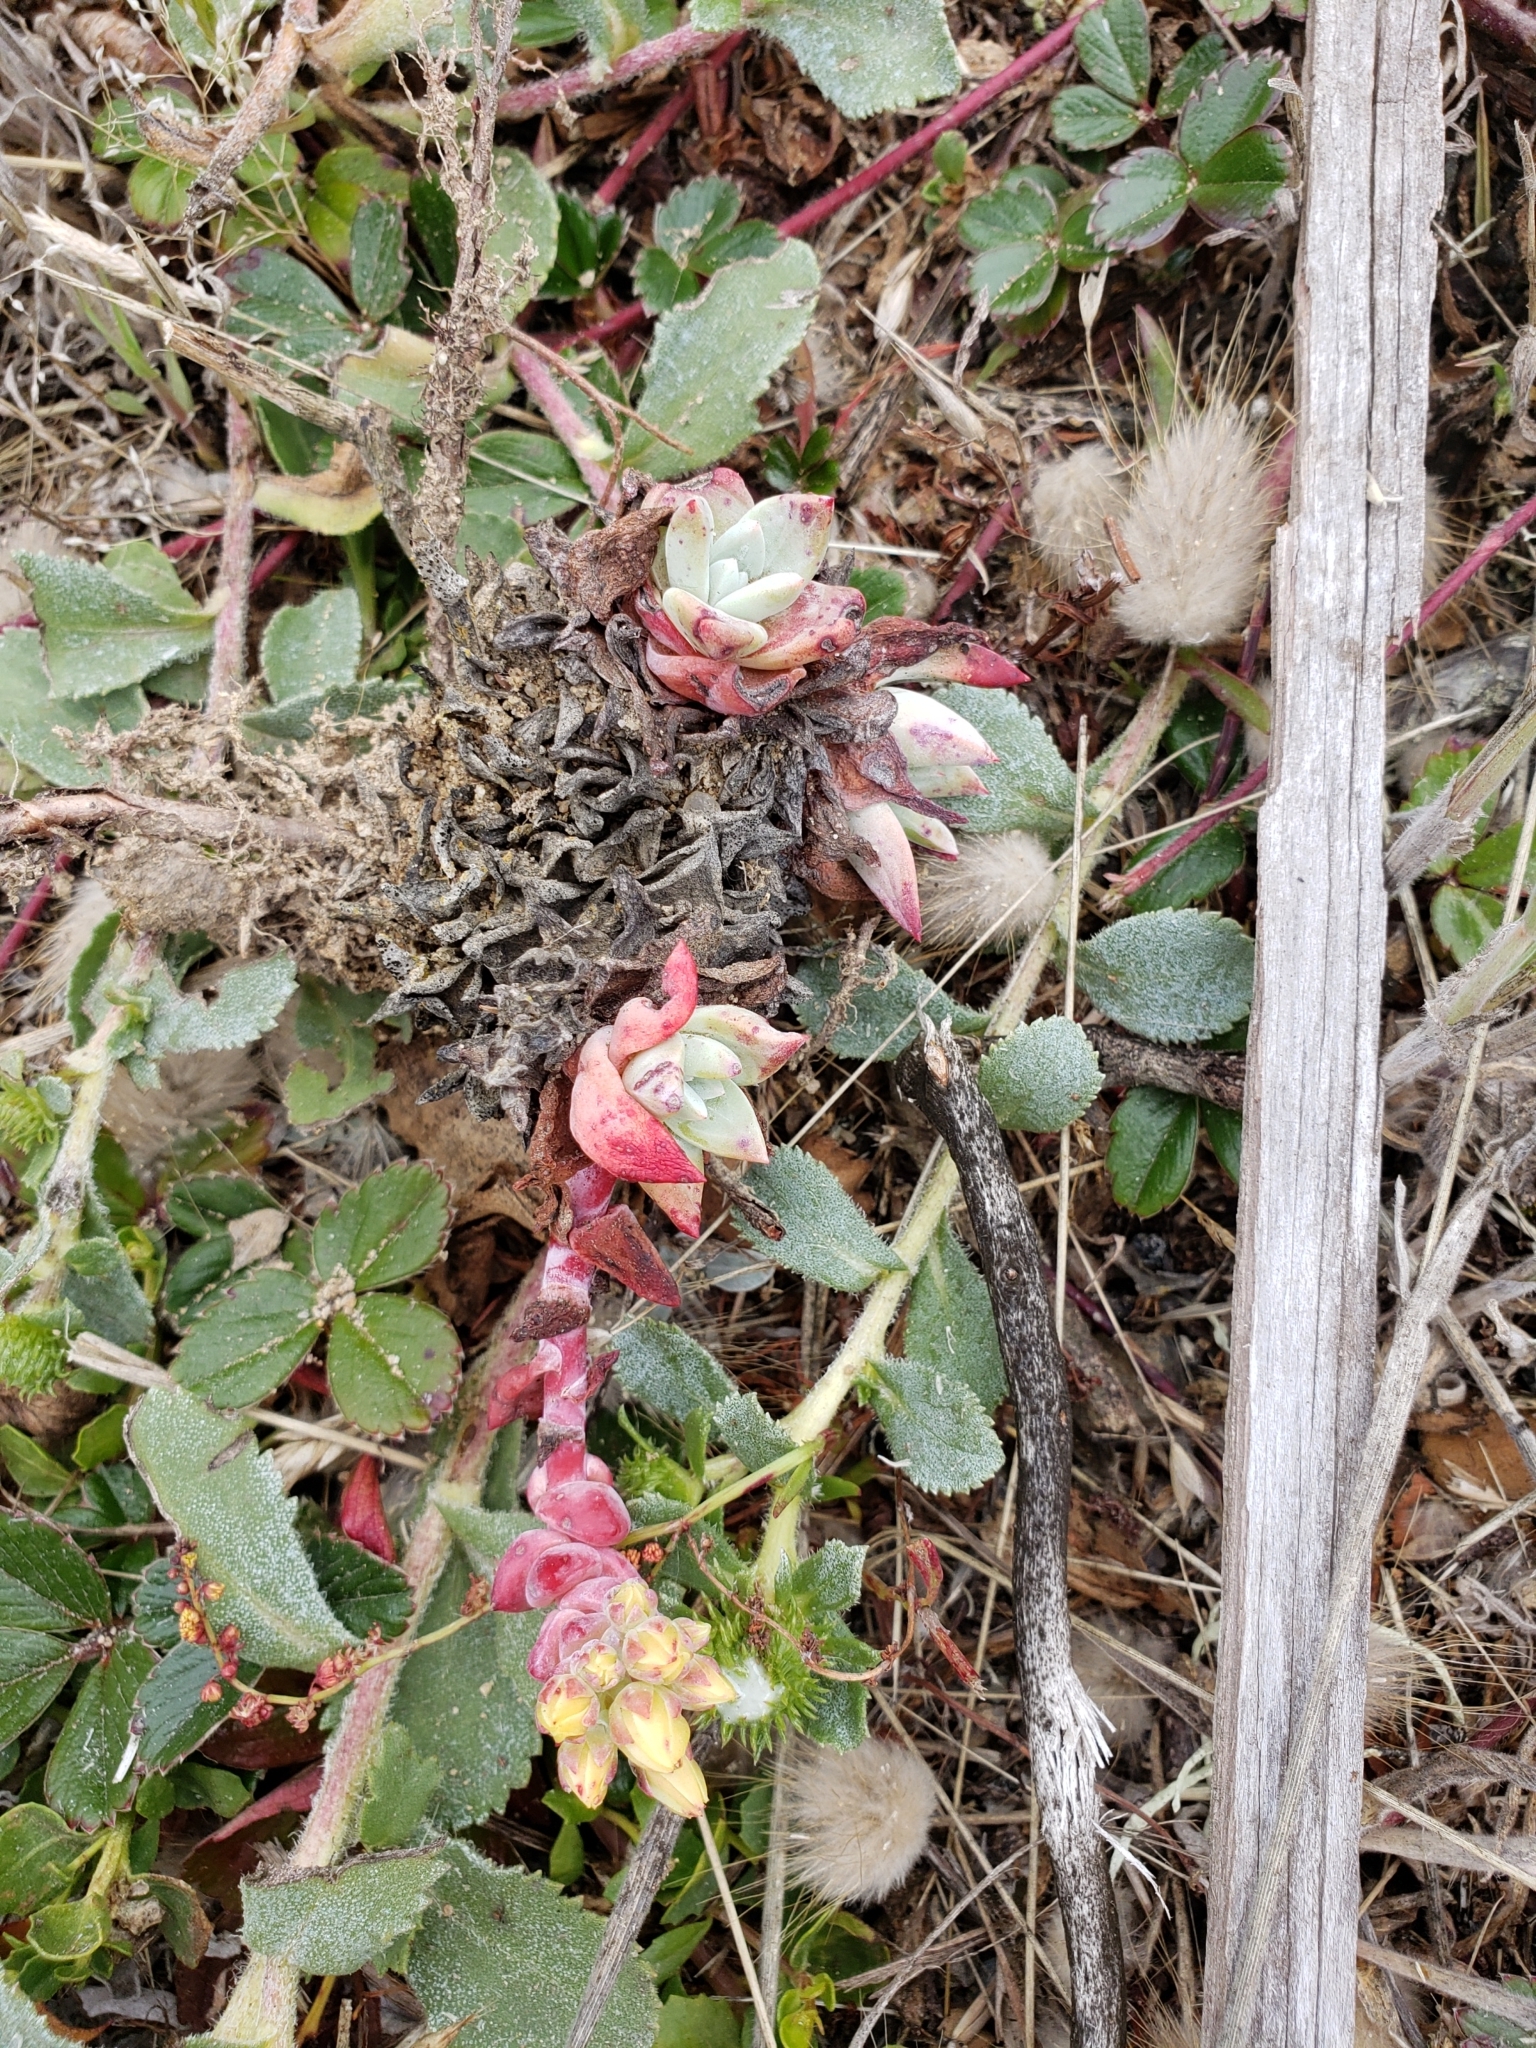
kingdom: Plantae
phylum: Tracheophyta
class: Magnoliopsida
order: Saxifragales
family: Crassulaceae
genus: Dudleya
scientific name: Dudleya farinosa
